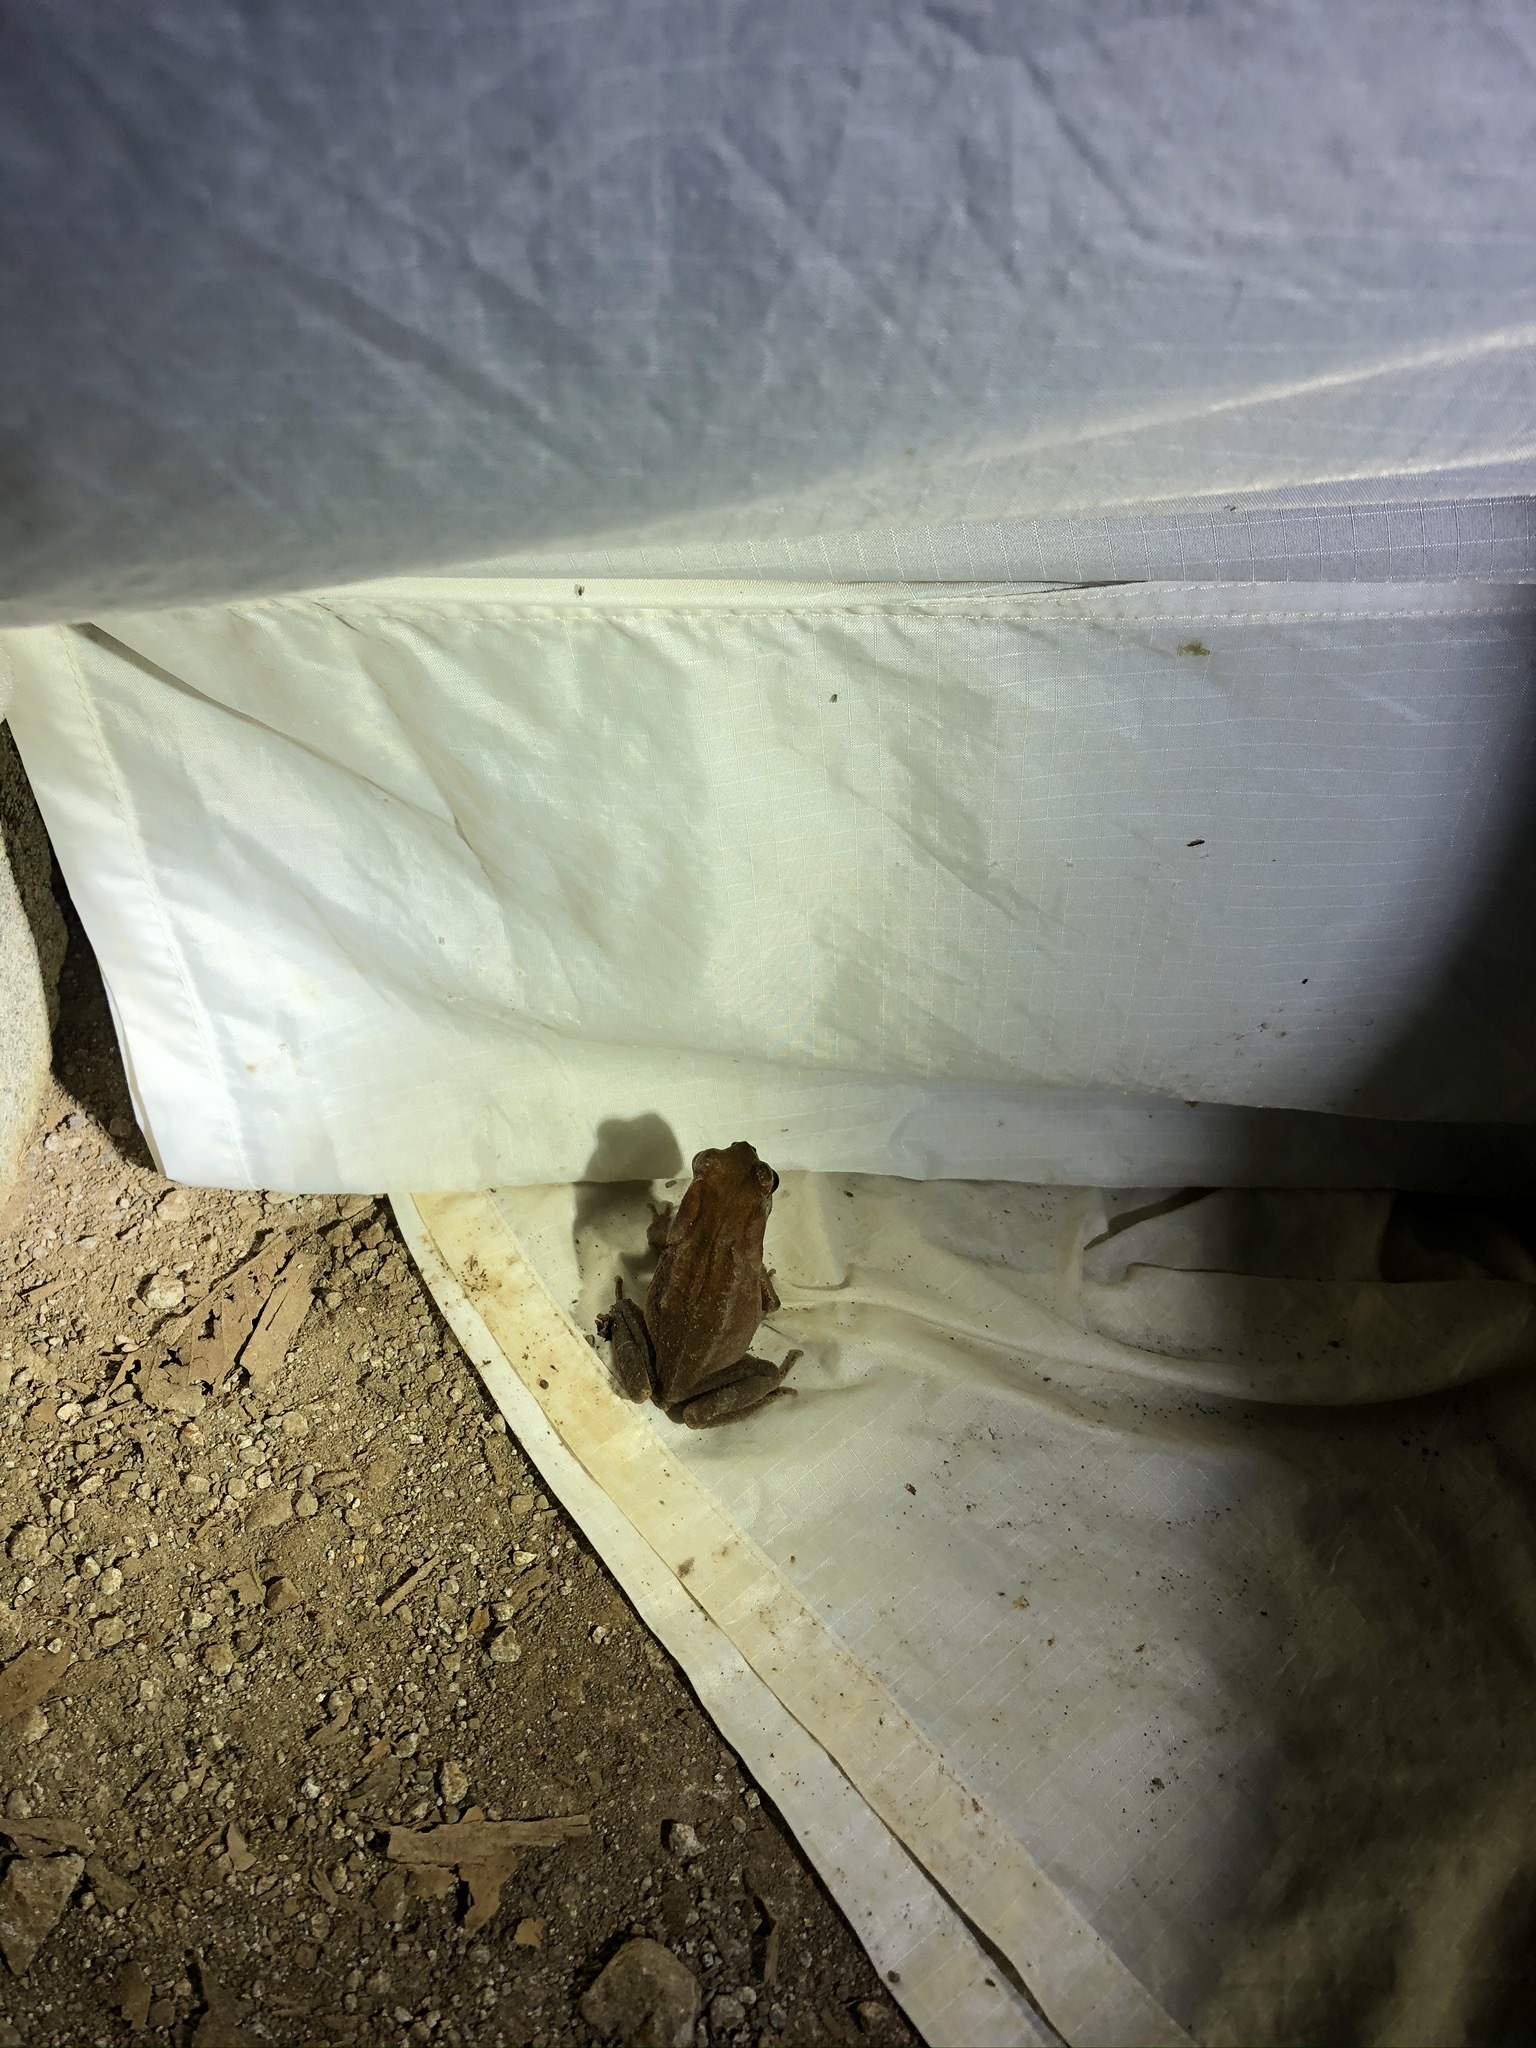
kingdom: Animalia
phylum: Chordata
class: Amphibia
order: Anura
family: Bufonidae
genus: Incilius
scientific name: Incilius melanochlorus
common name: Dark green toad
